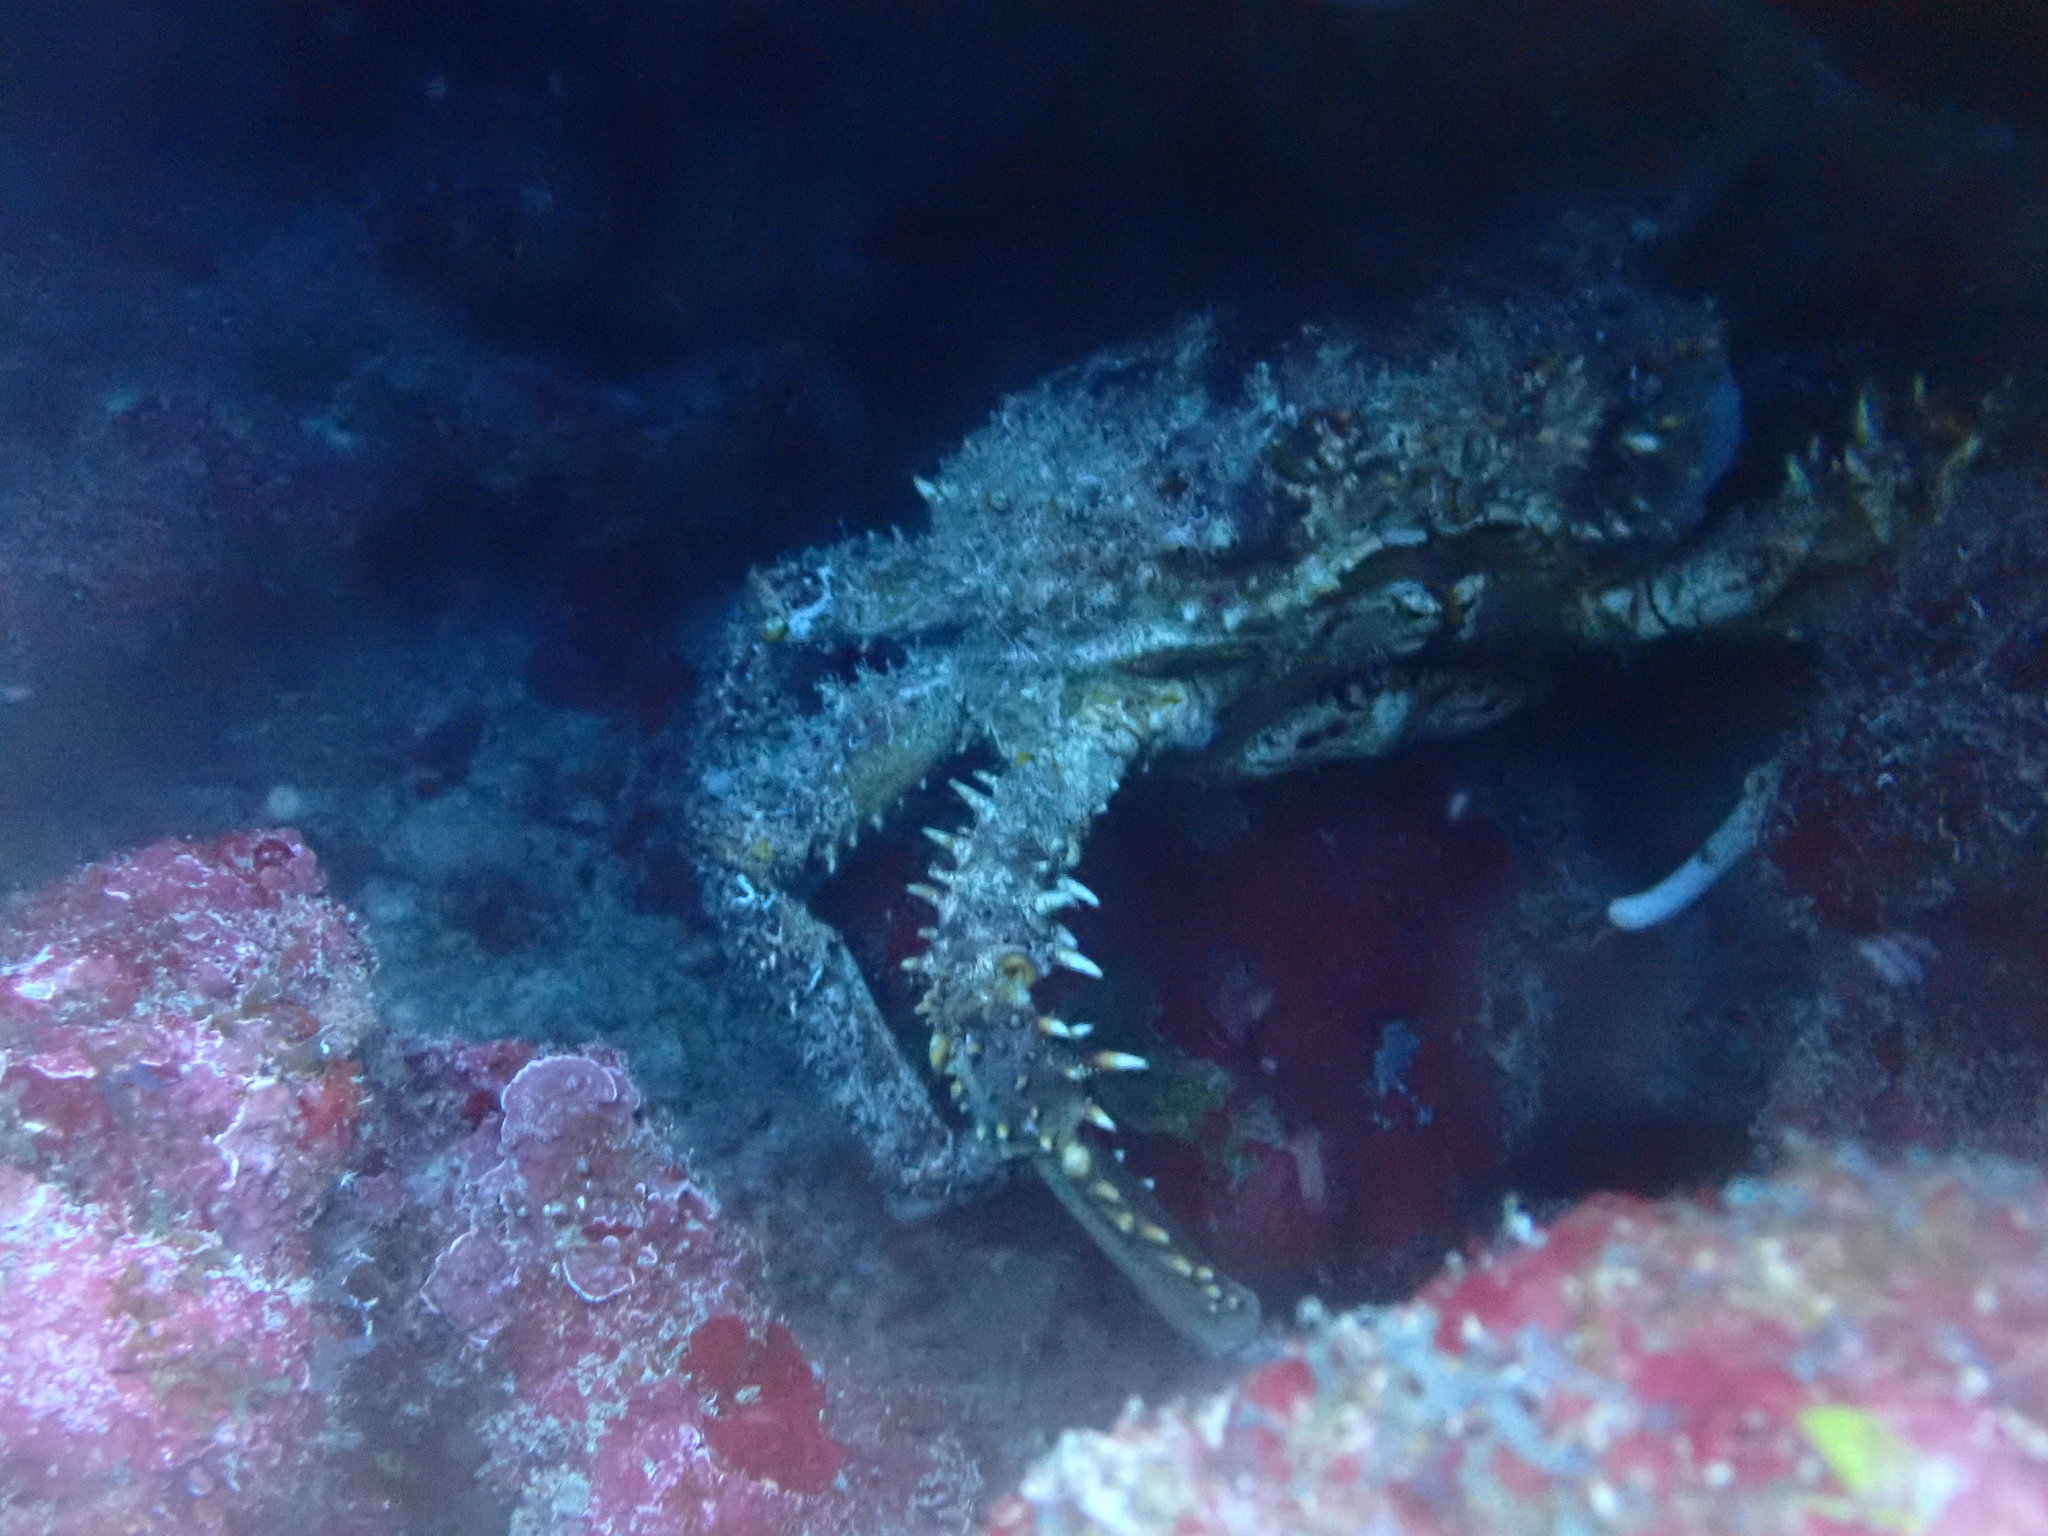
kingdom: Animalia
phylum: Arthropoda
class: Malacostraca
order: Decapoda
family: Mithracidae
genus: Amphithrax
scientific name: Amphithrax pilosus
